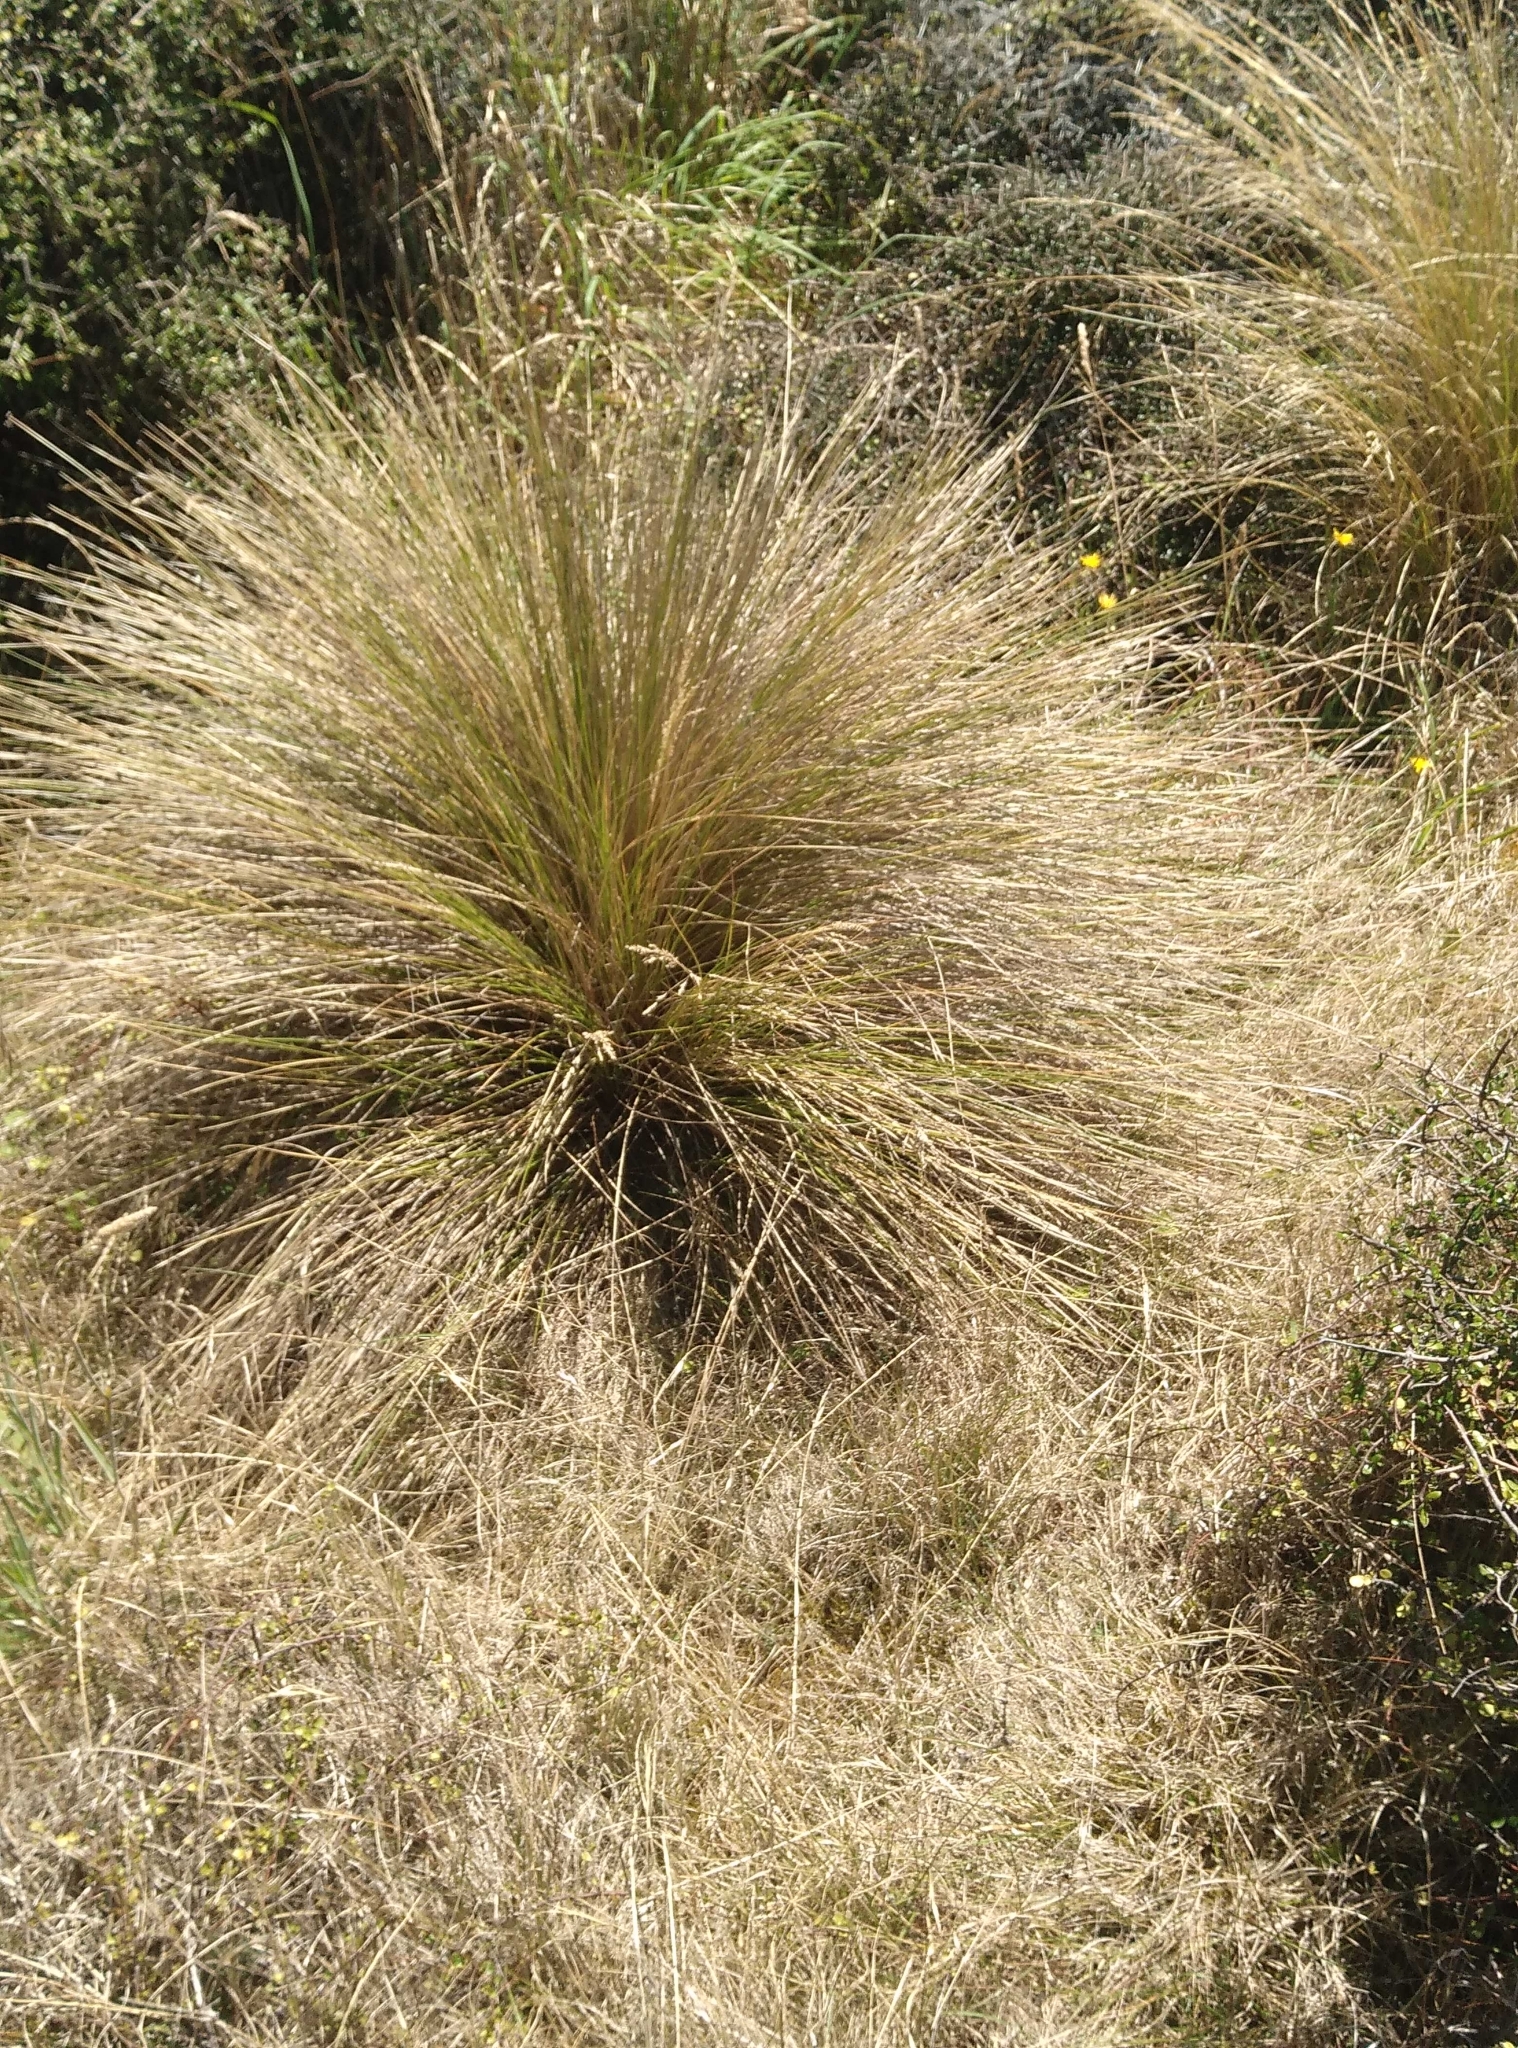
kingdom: Plantae
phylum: Tracheophyta
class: Liliopsida
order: Poales
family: Poaceae
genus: Poa
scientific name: Poa cita
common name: Silver tussock
